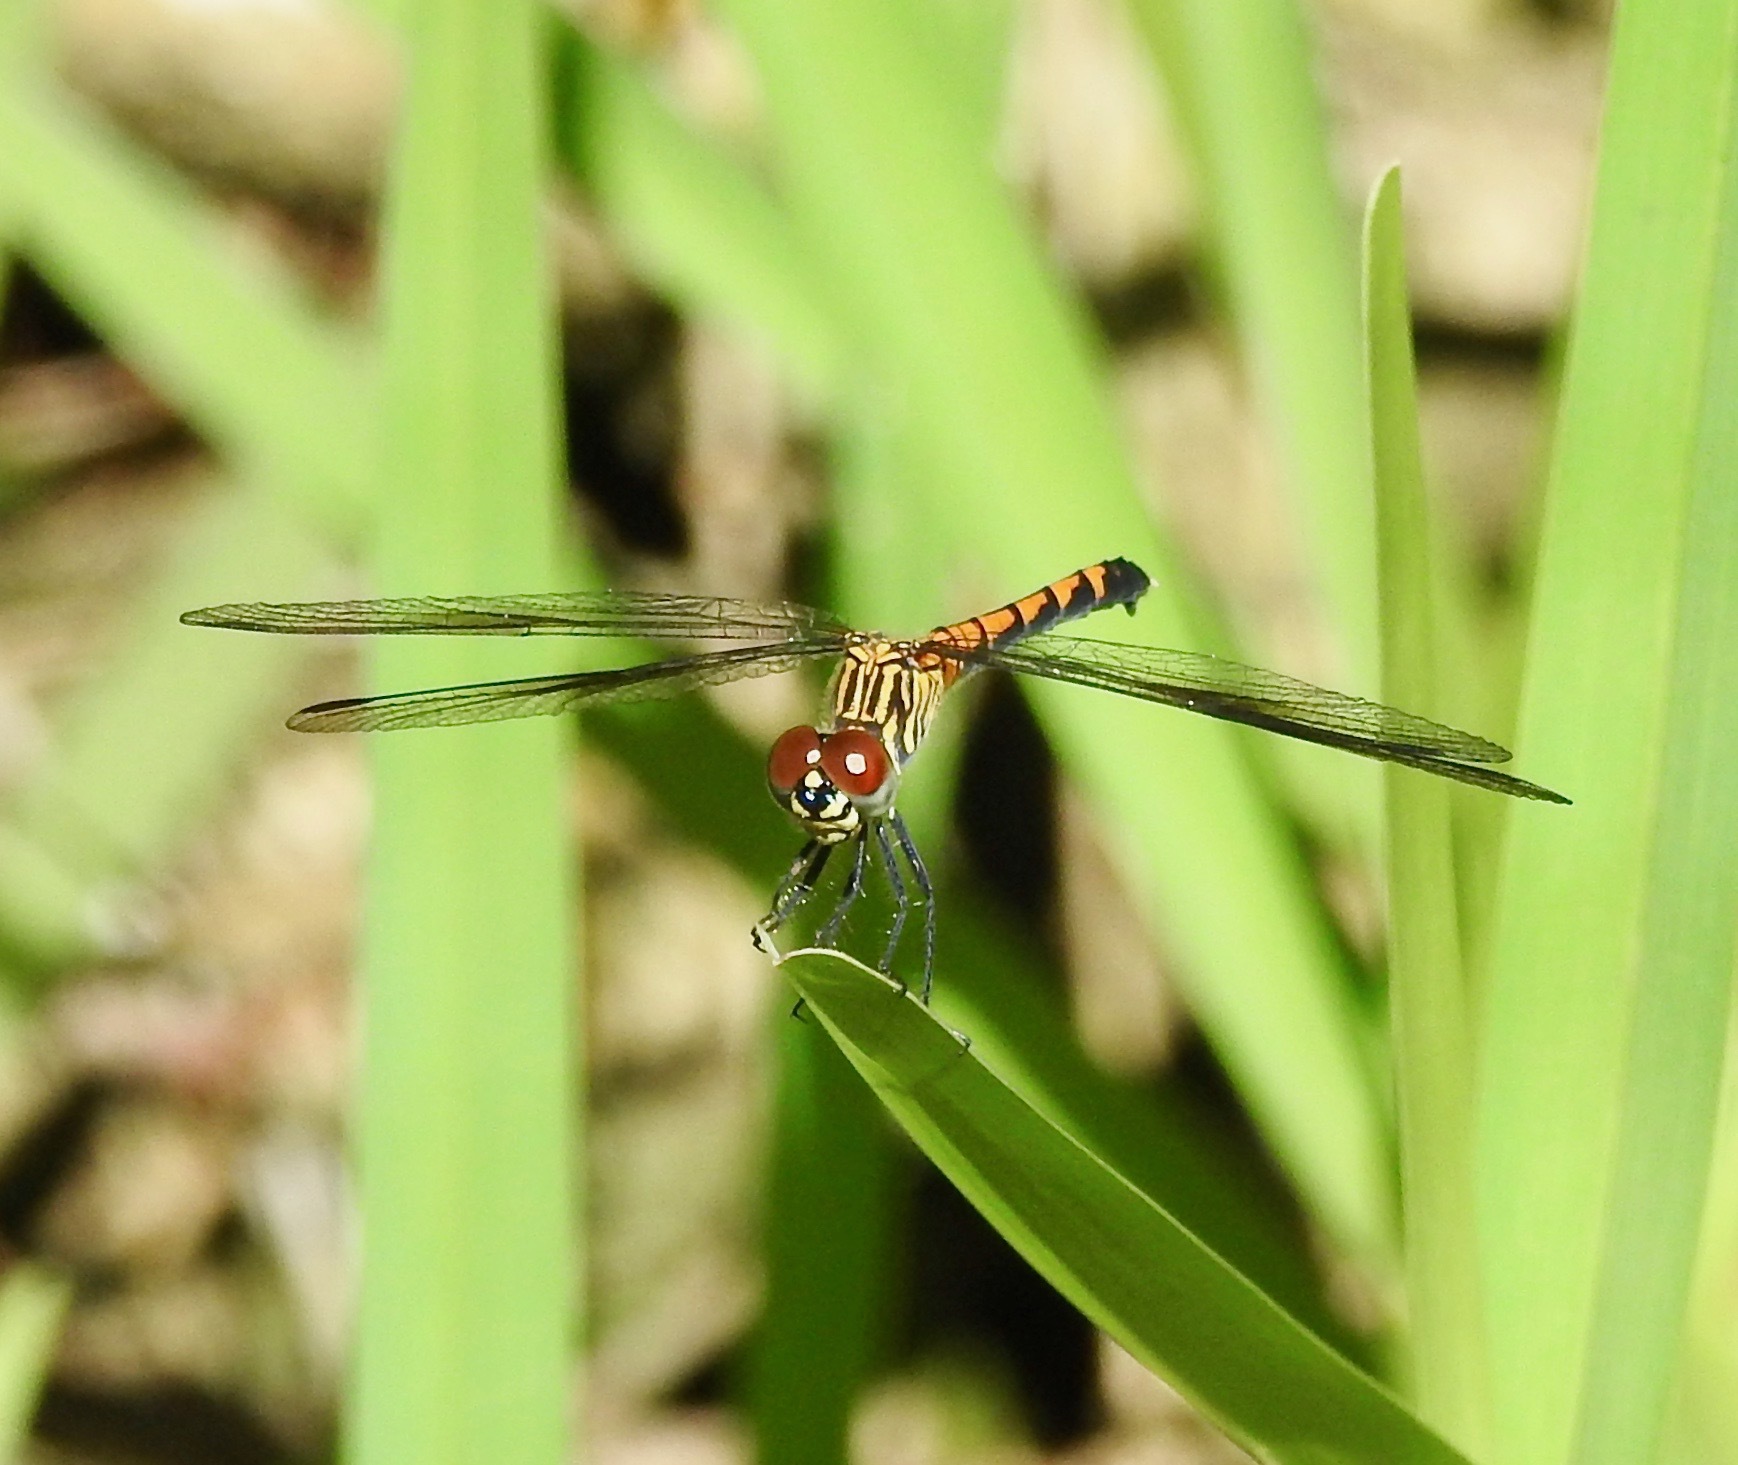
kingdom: Animalia
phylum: Arthropoda
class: Insecta
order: Odonata
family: Libellulidae
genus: Erythrodiplax
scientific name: Erythrodiplax berenice
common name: Seaside dragonlet
